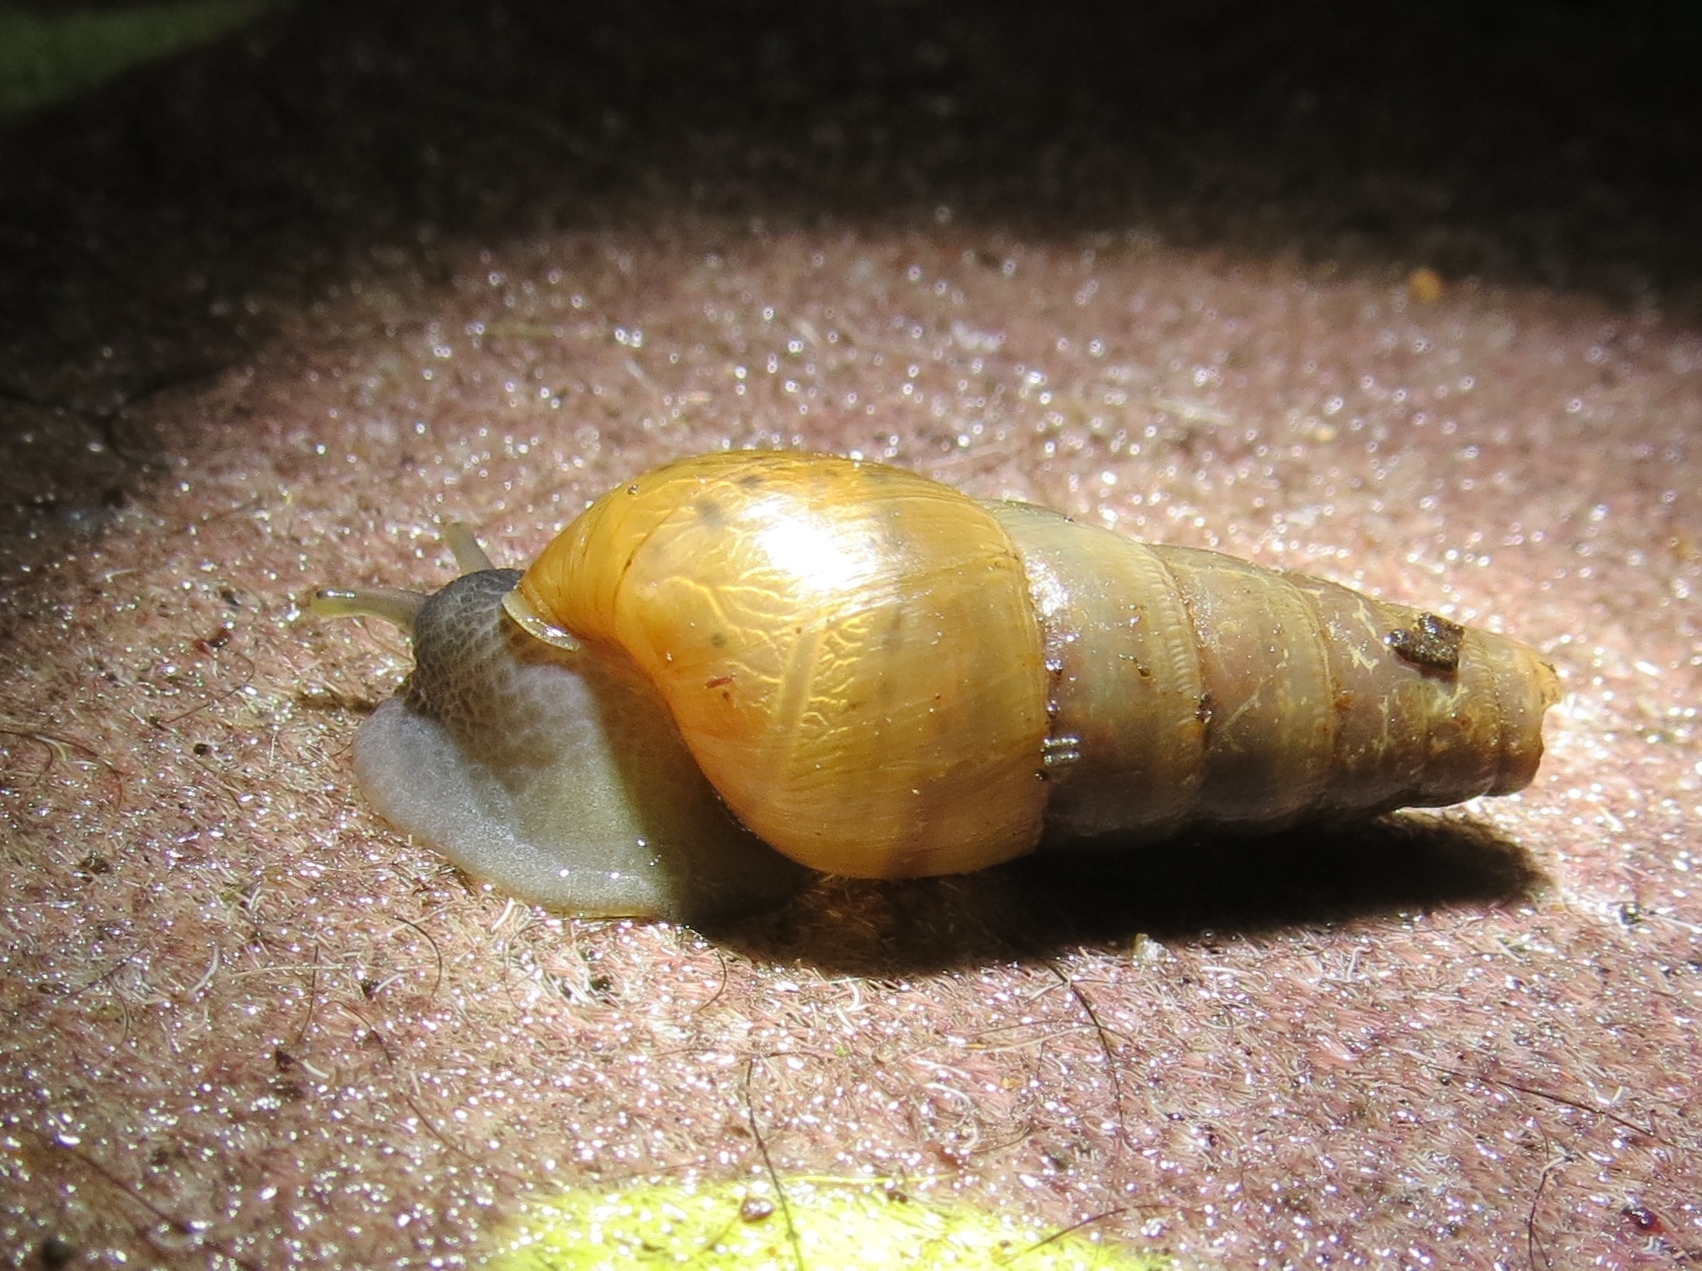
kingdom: Animalia
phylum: Mollusca
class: Gastropoda
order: Stylommatophora
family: Achatinidae
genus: Rumina
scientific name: Rumina decollata
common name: Decollate snail
